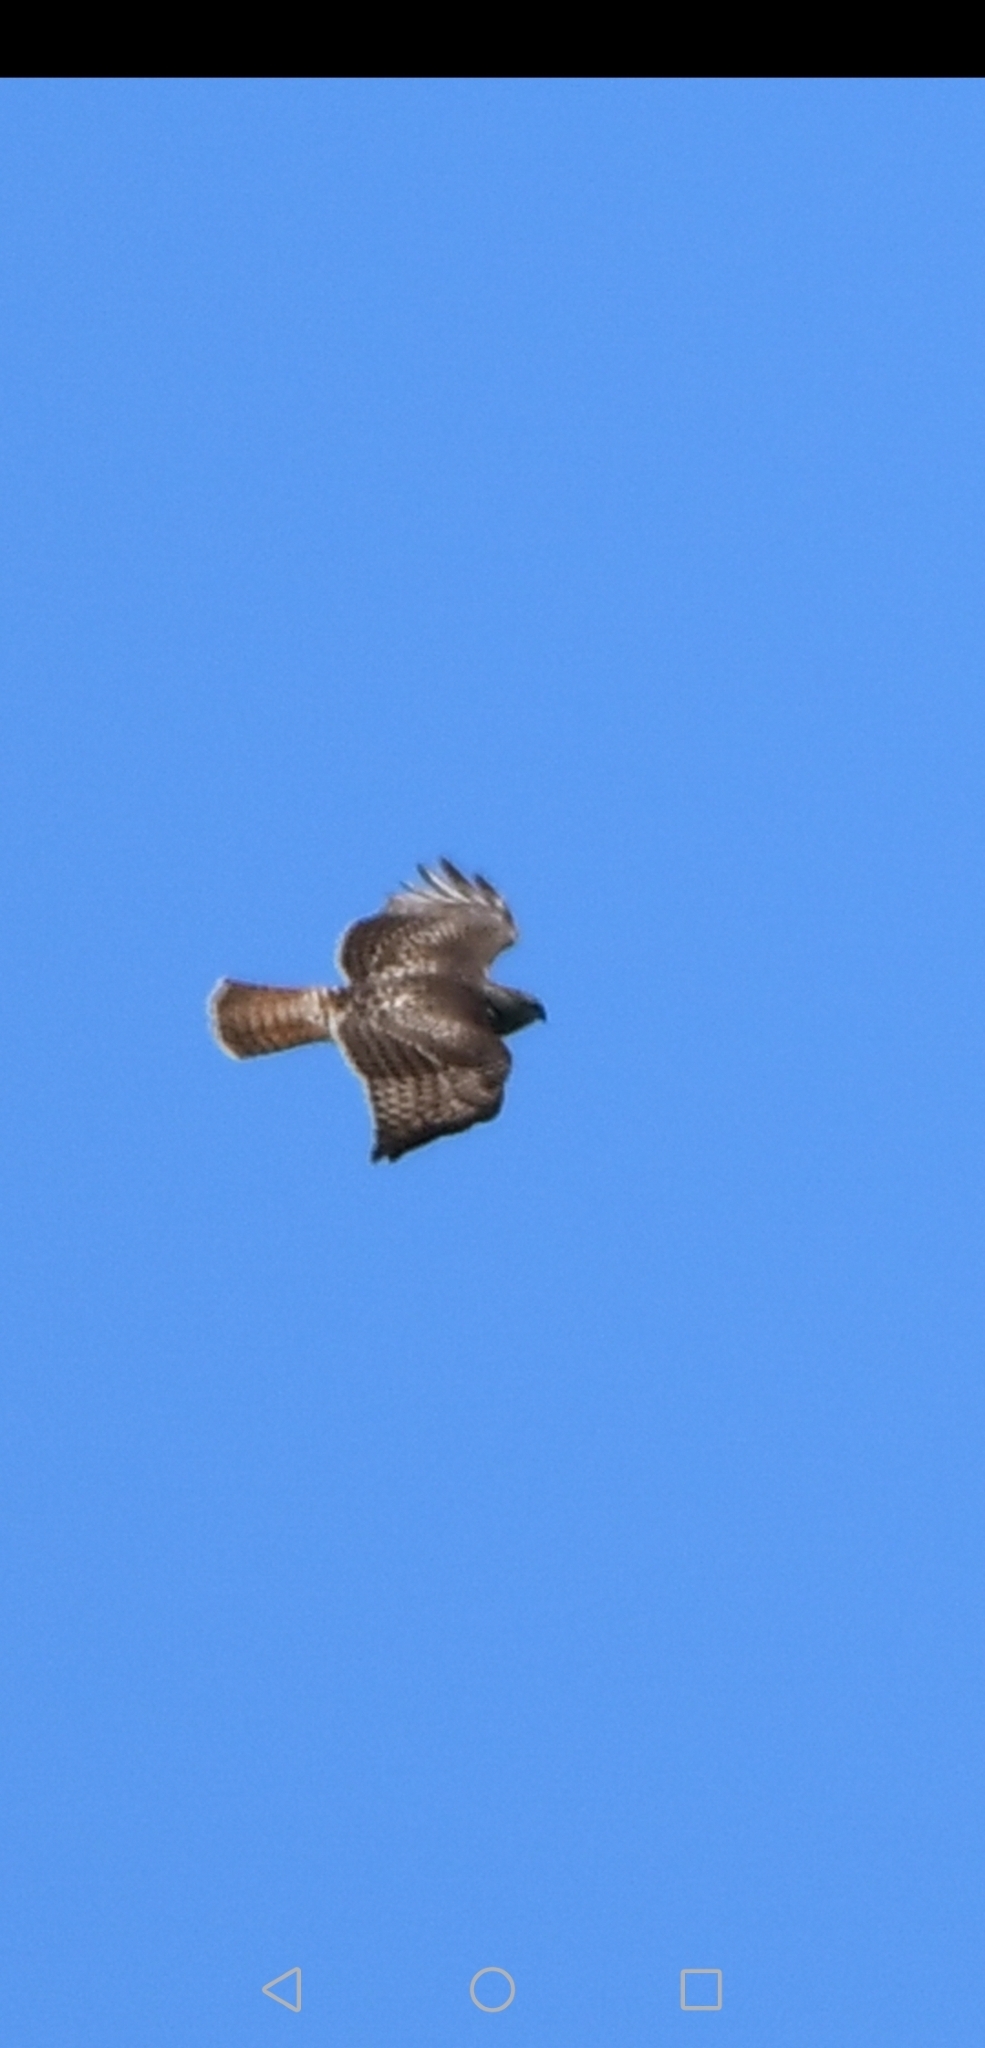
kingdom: Animalia
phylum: Chordata
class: Aves
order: Accipitriformes
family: Accipitridae
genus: Buteo
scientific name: Buteo jamaicensis
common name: Red-tailed hawk
